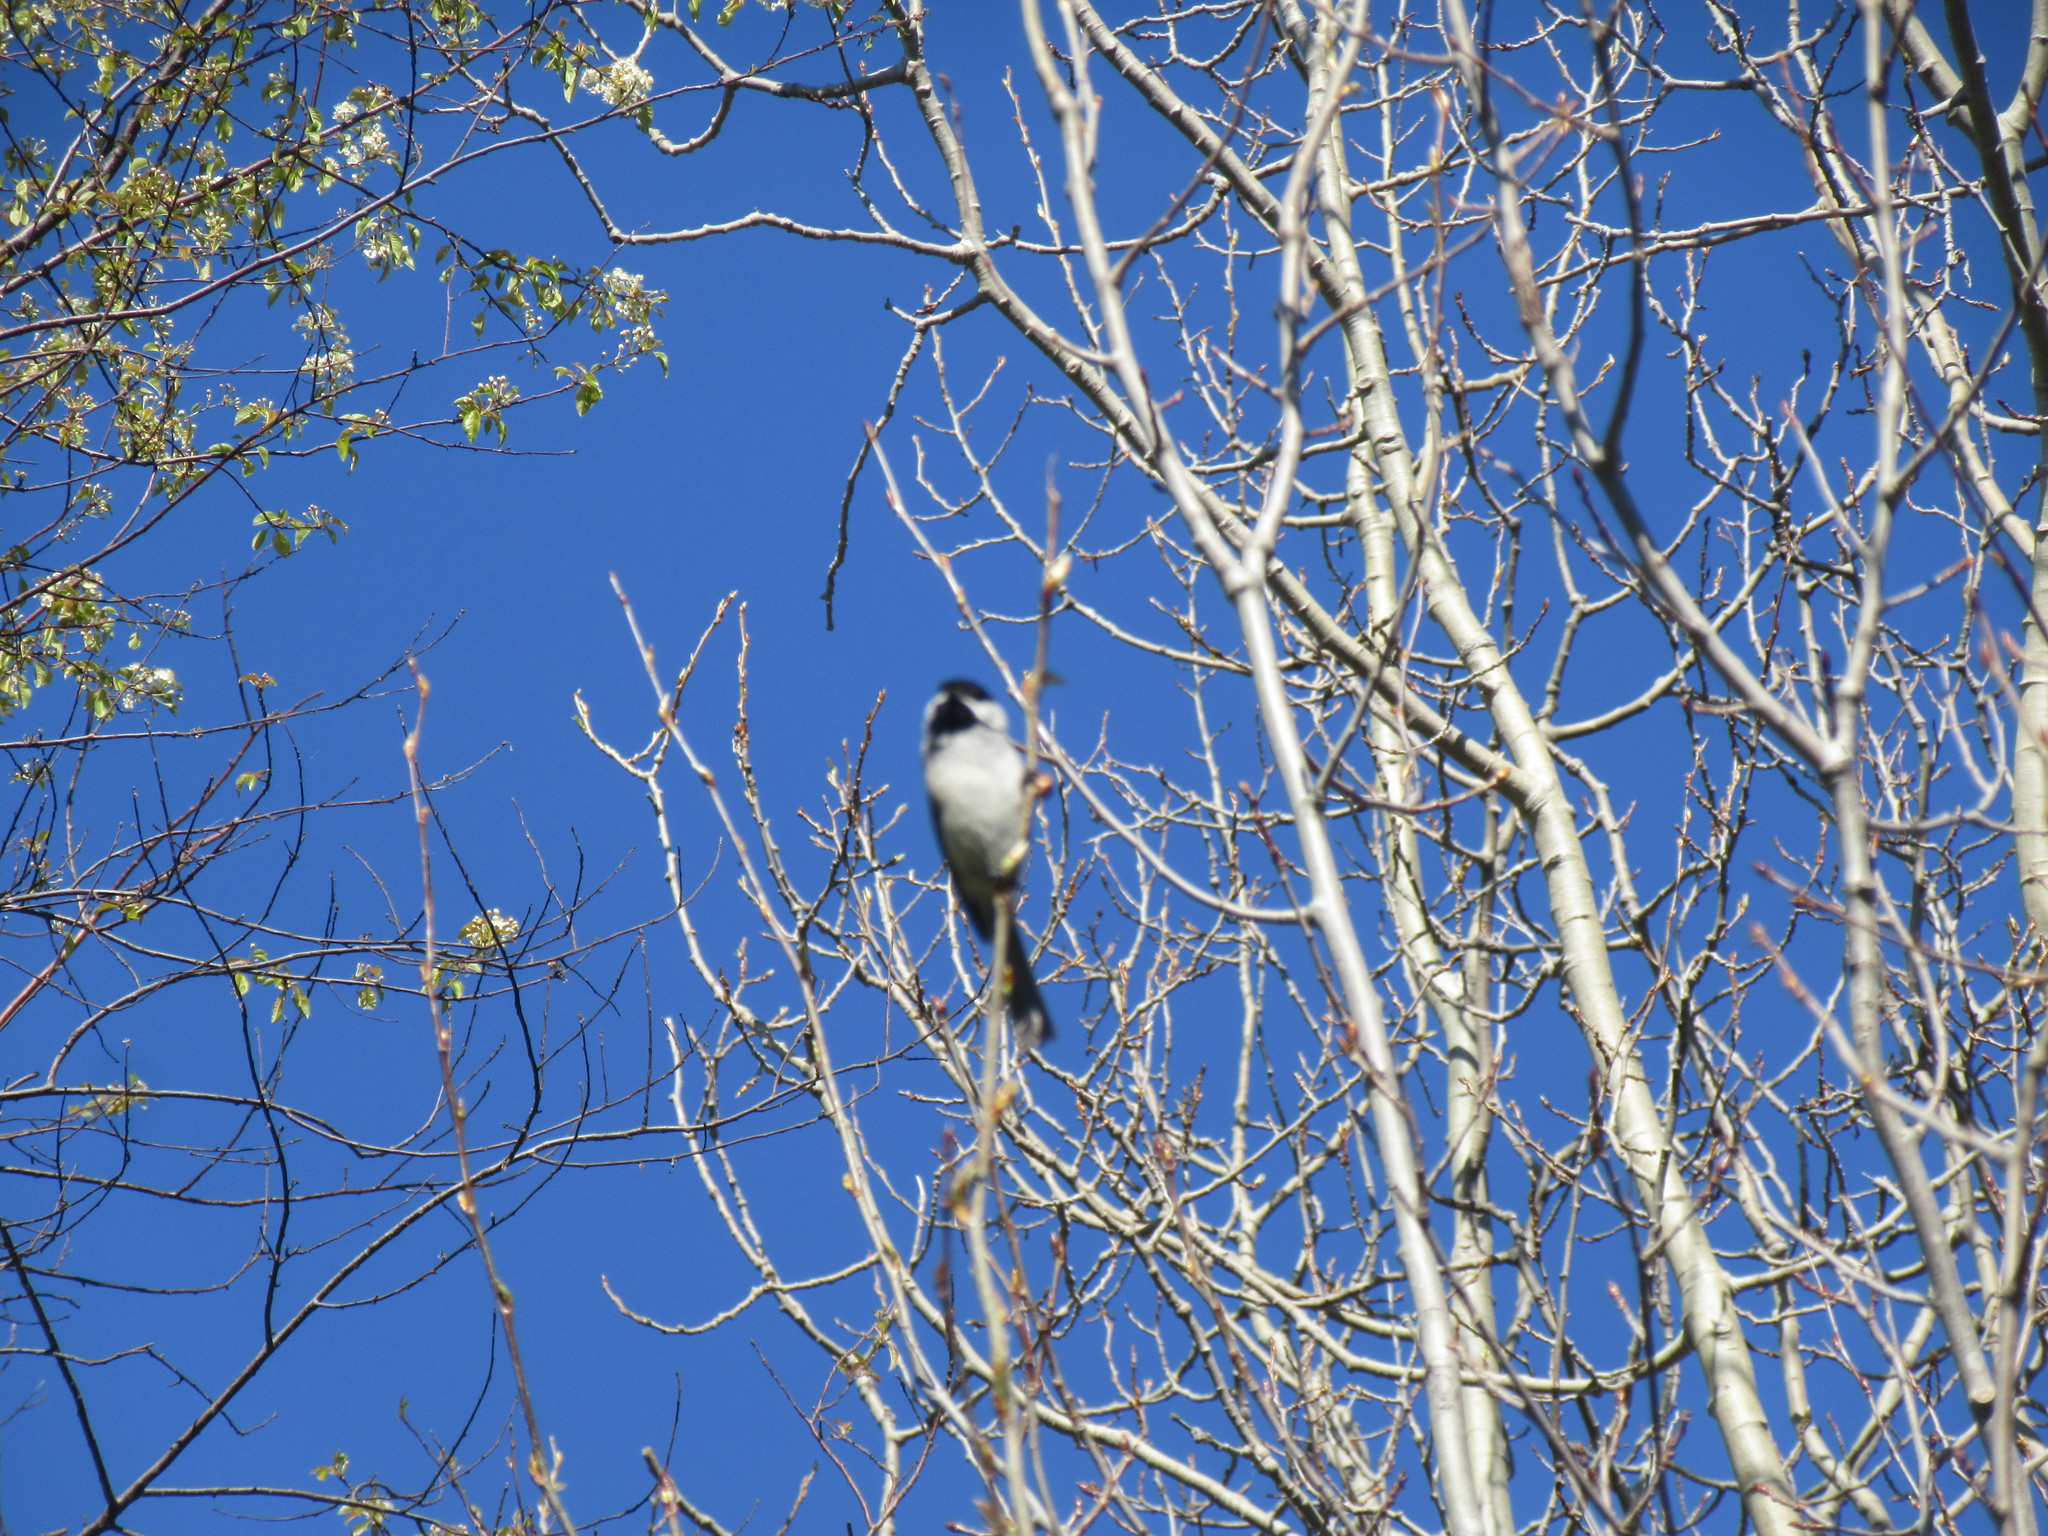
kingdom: Animalia
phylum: Chordata
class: Aves
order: Passeriformes
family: Paridae
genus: Poecile
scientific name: Poecile atricapillus
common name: Black-capped chickadee
